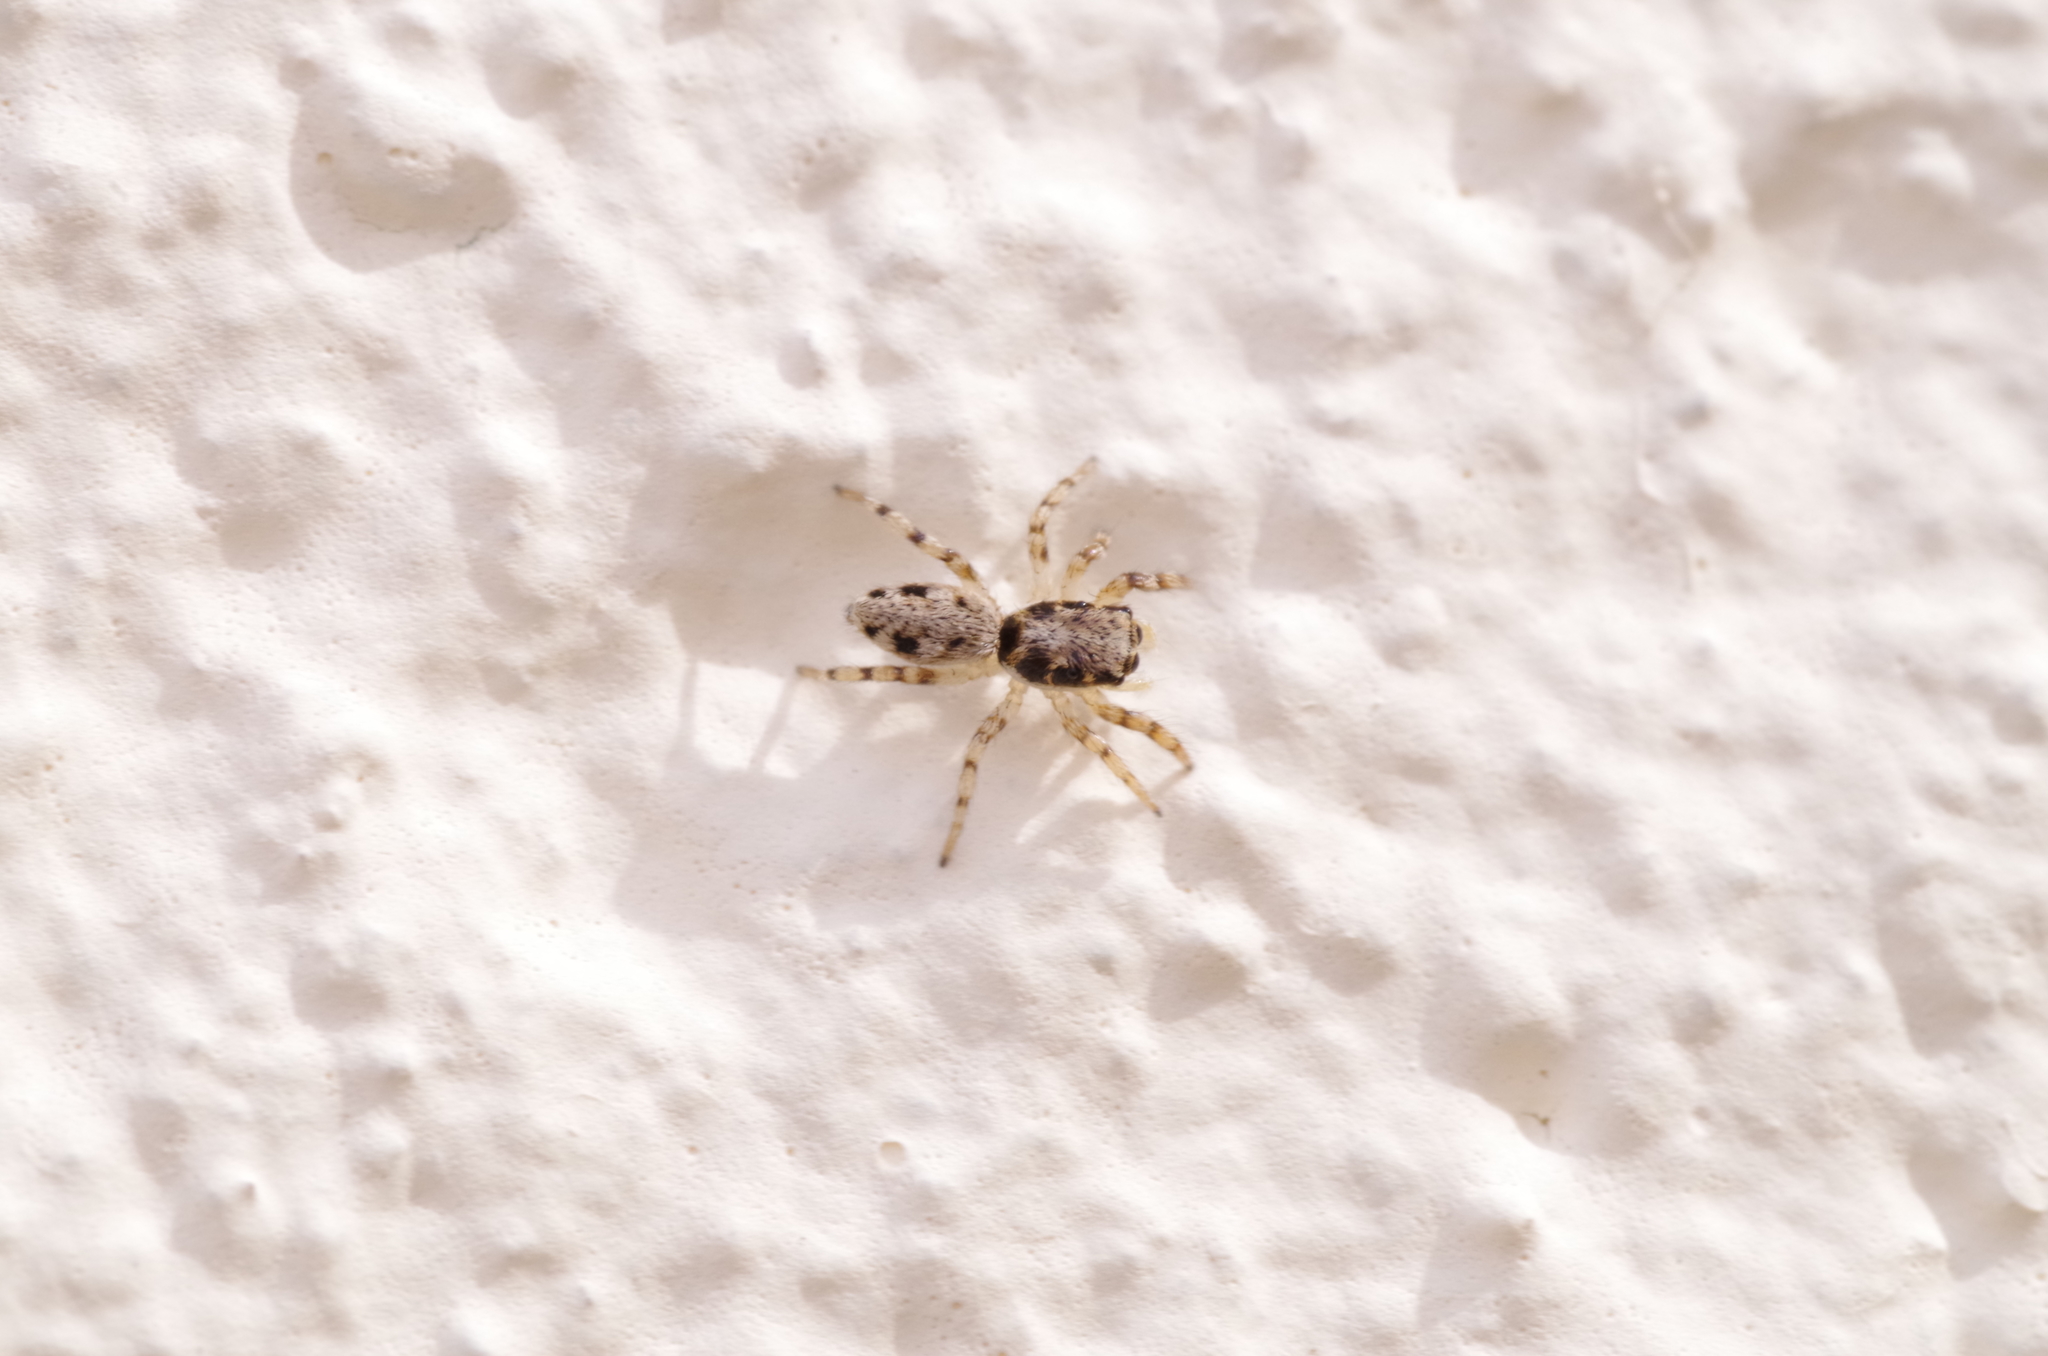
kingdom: Animalia
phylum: Arthropoda
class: Arachnida
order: Araneae
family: Salticidae
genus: Salticus
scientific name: Salticus mutabilis
